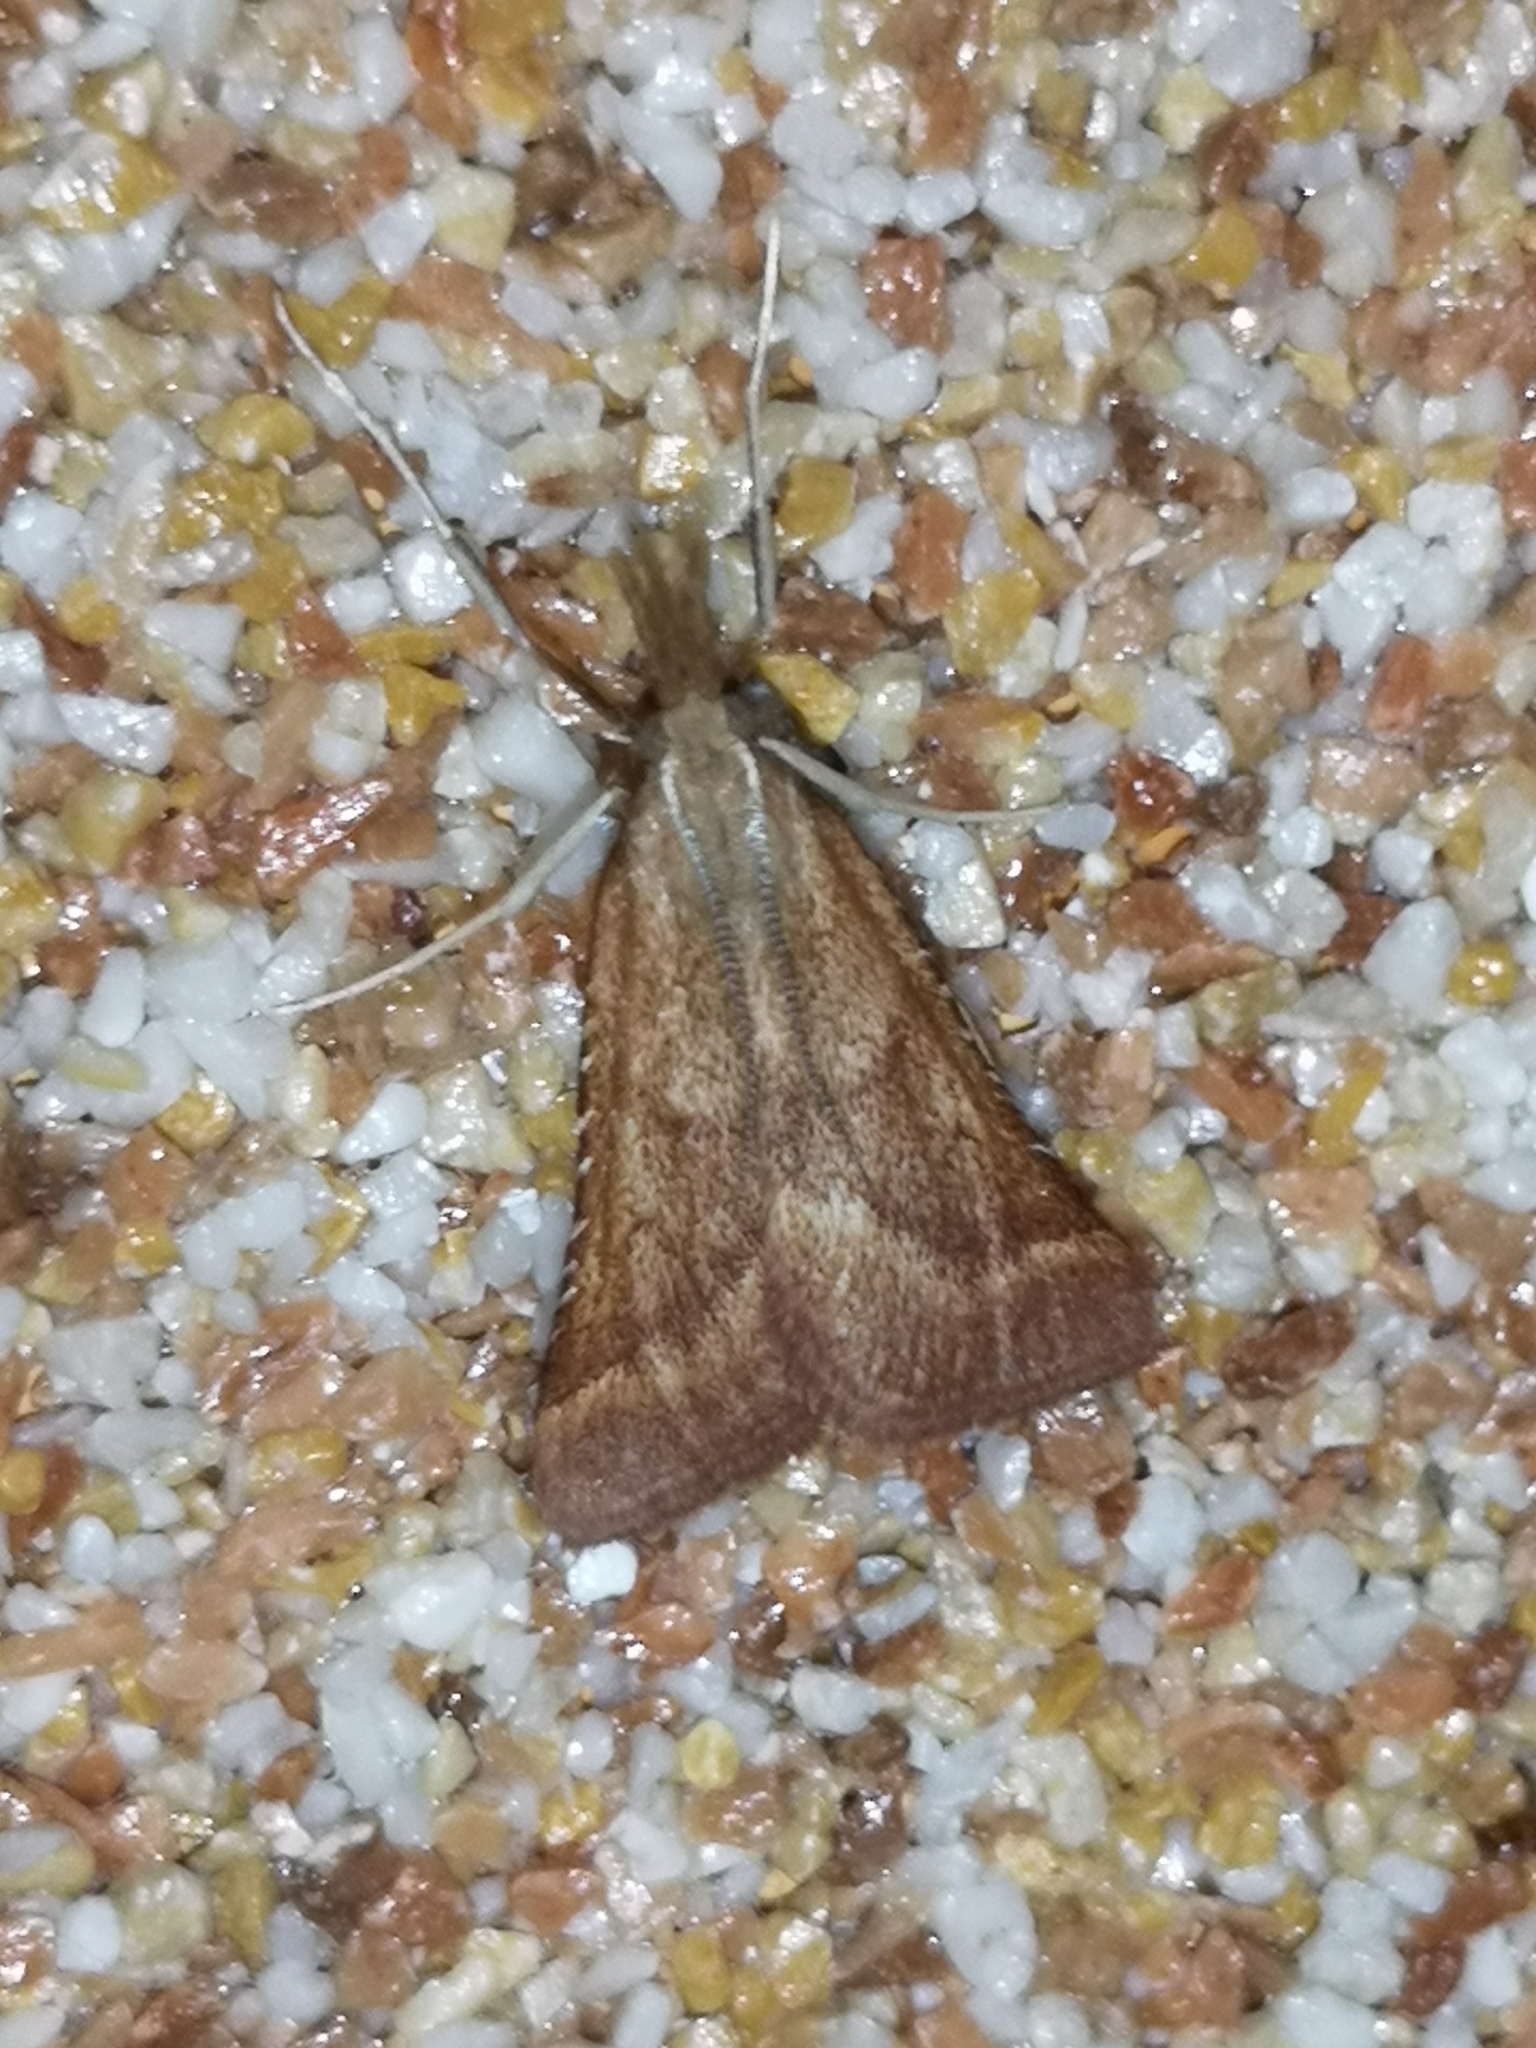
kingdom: Animalia
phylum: Arthropoda
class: Insecta
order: Lepidoptera
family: Pyralidae
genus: Synaphe
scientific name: Synaphe punctalis
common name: Long-legged tabby
